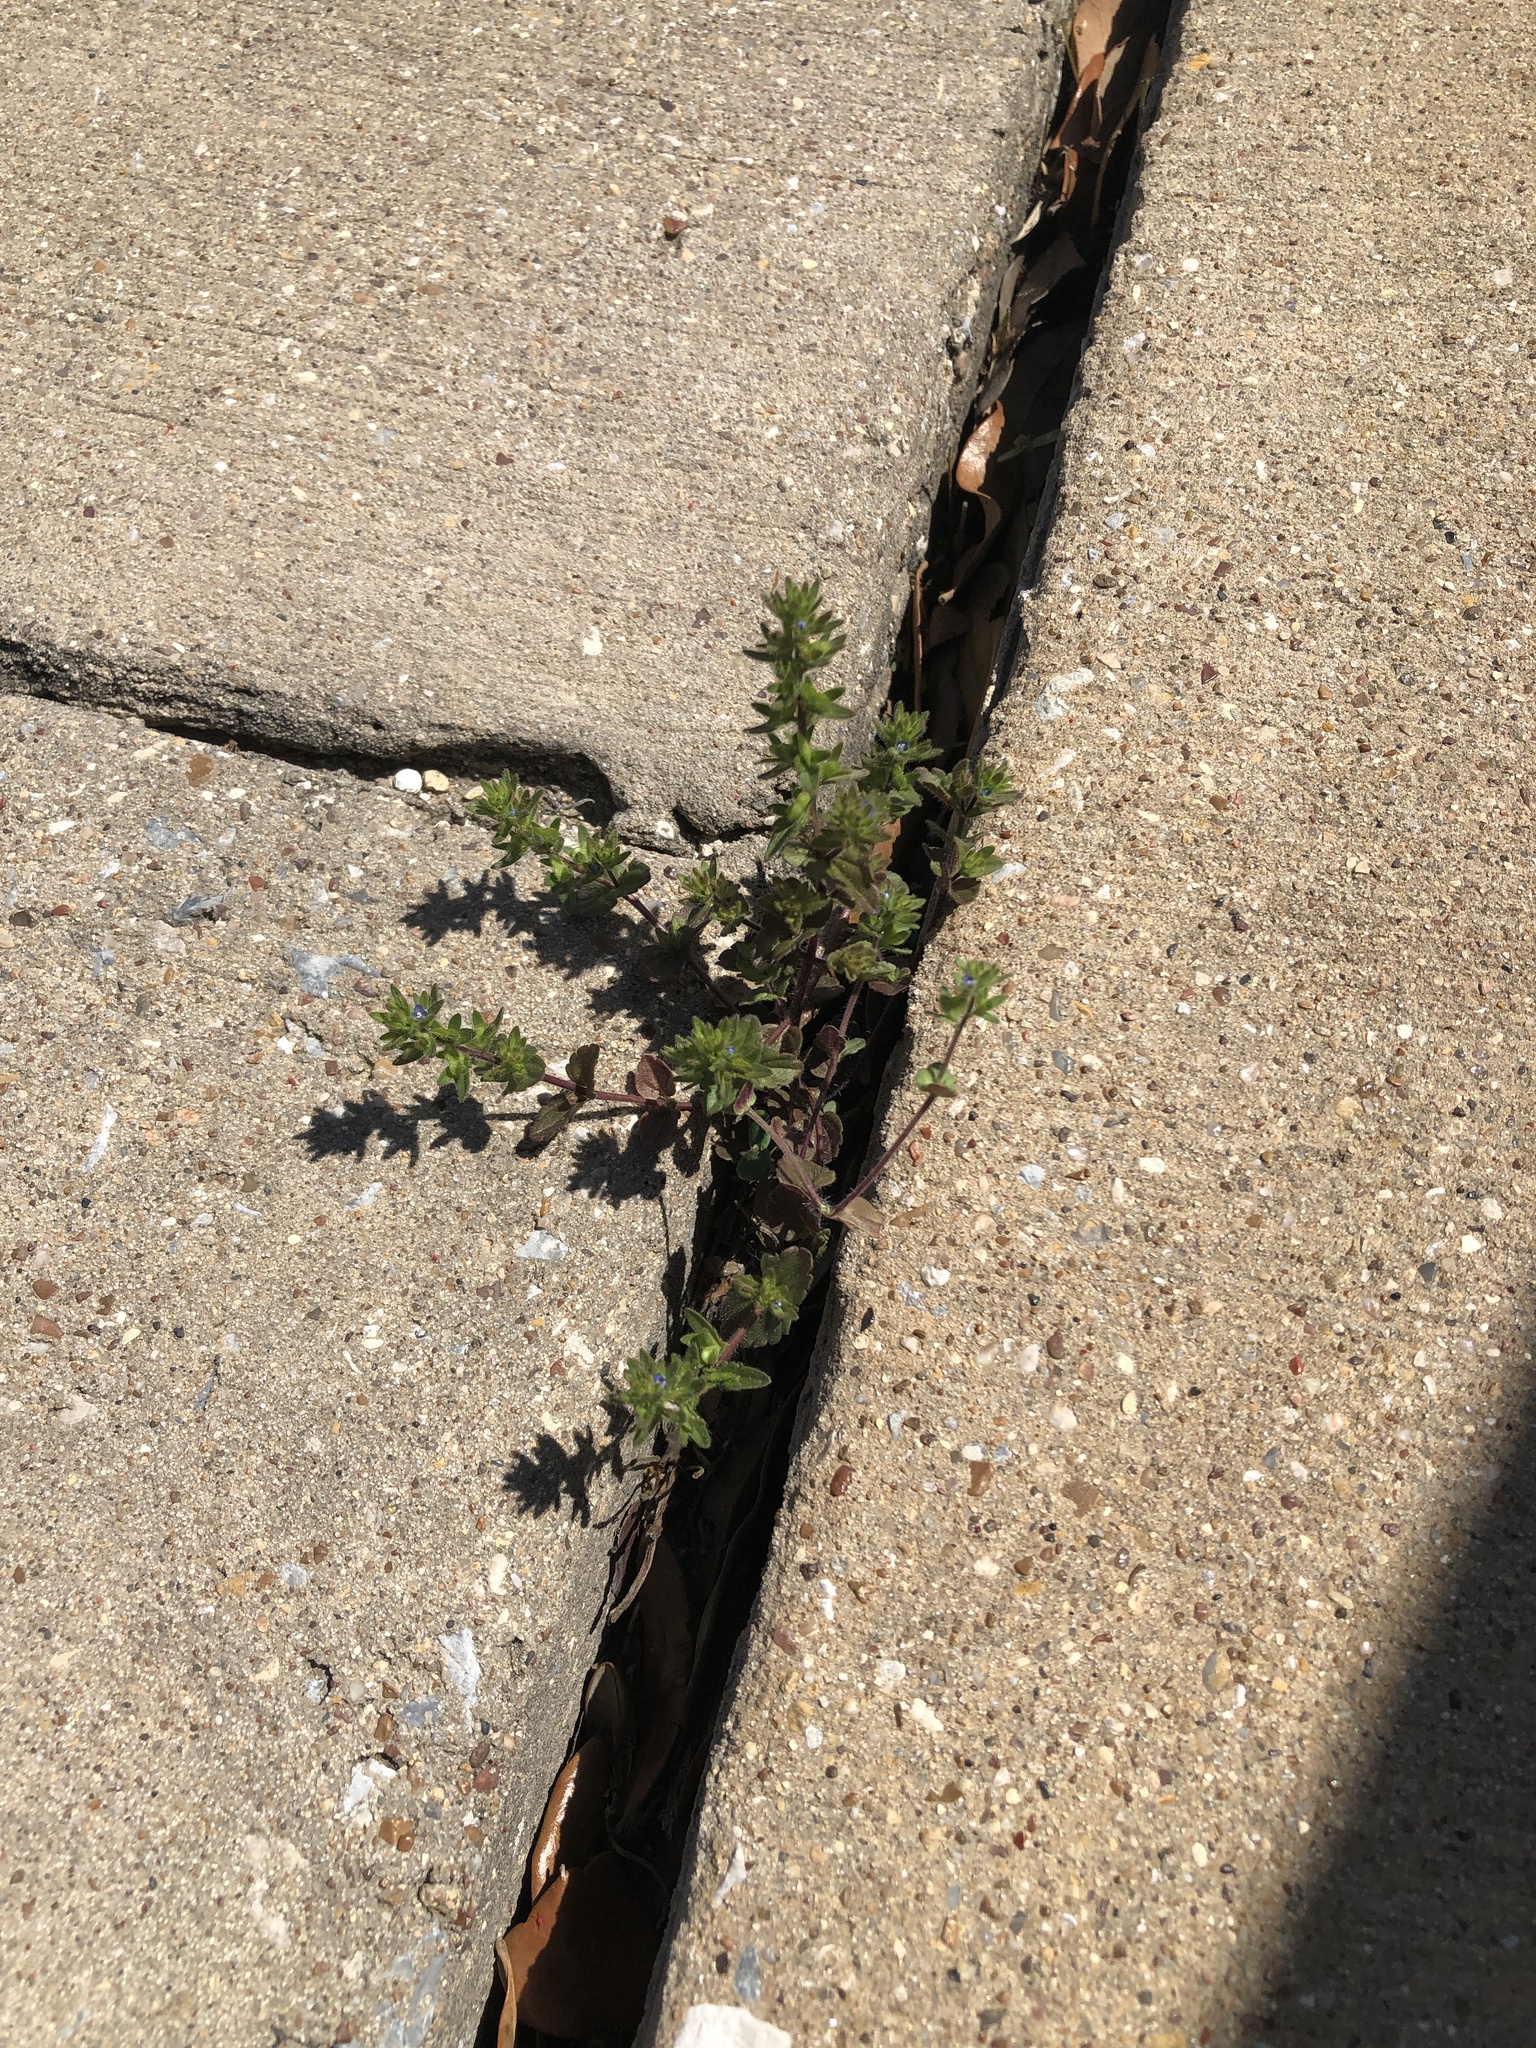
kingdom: Plantae
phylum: Tracheophyta
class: Magnoliopsida
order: Lamiales
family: Plantaginaceae
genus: Veronica
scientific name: Veronica arvensis
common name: Corn speedwell
